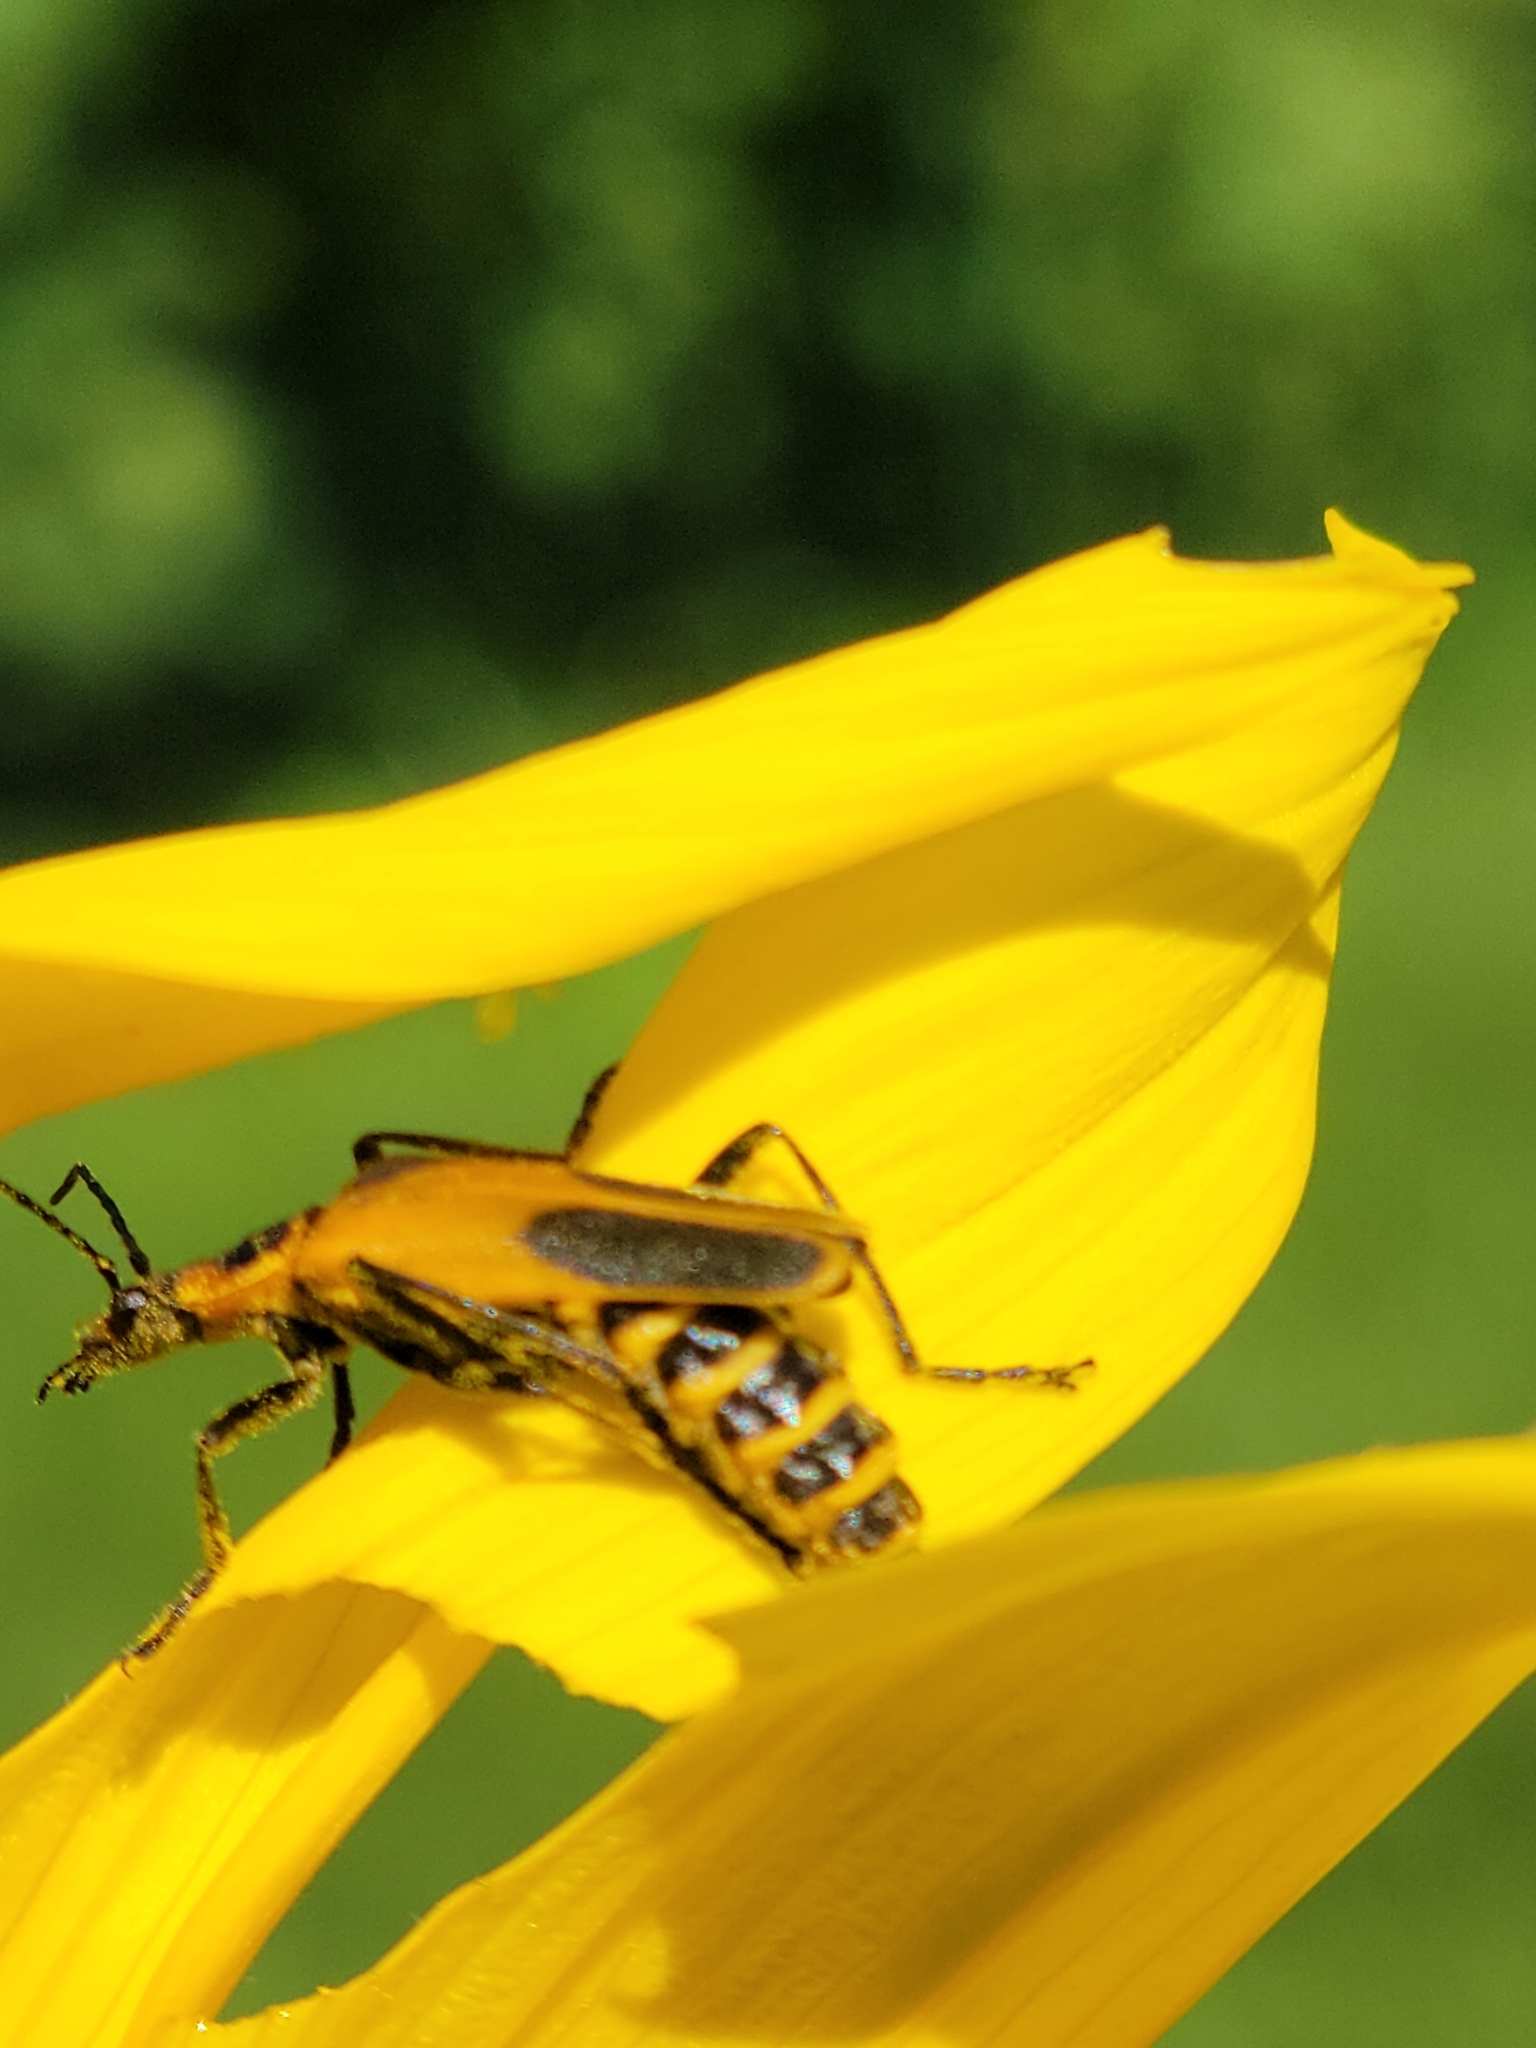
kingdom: Animalia
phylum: Arthropoda
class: Insecta
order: Coleoptera
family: Cantharidae
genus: Chauliognathus
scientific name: Chauliognathus pensylvanicus
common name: Goldenrod soldier beetle
